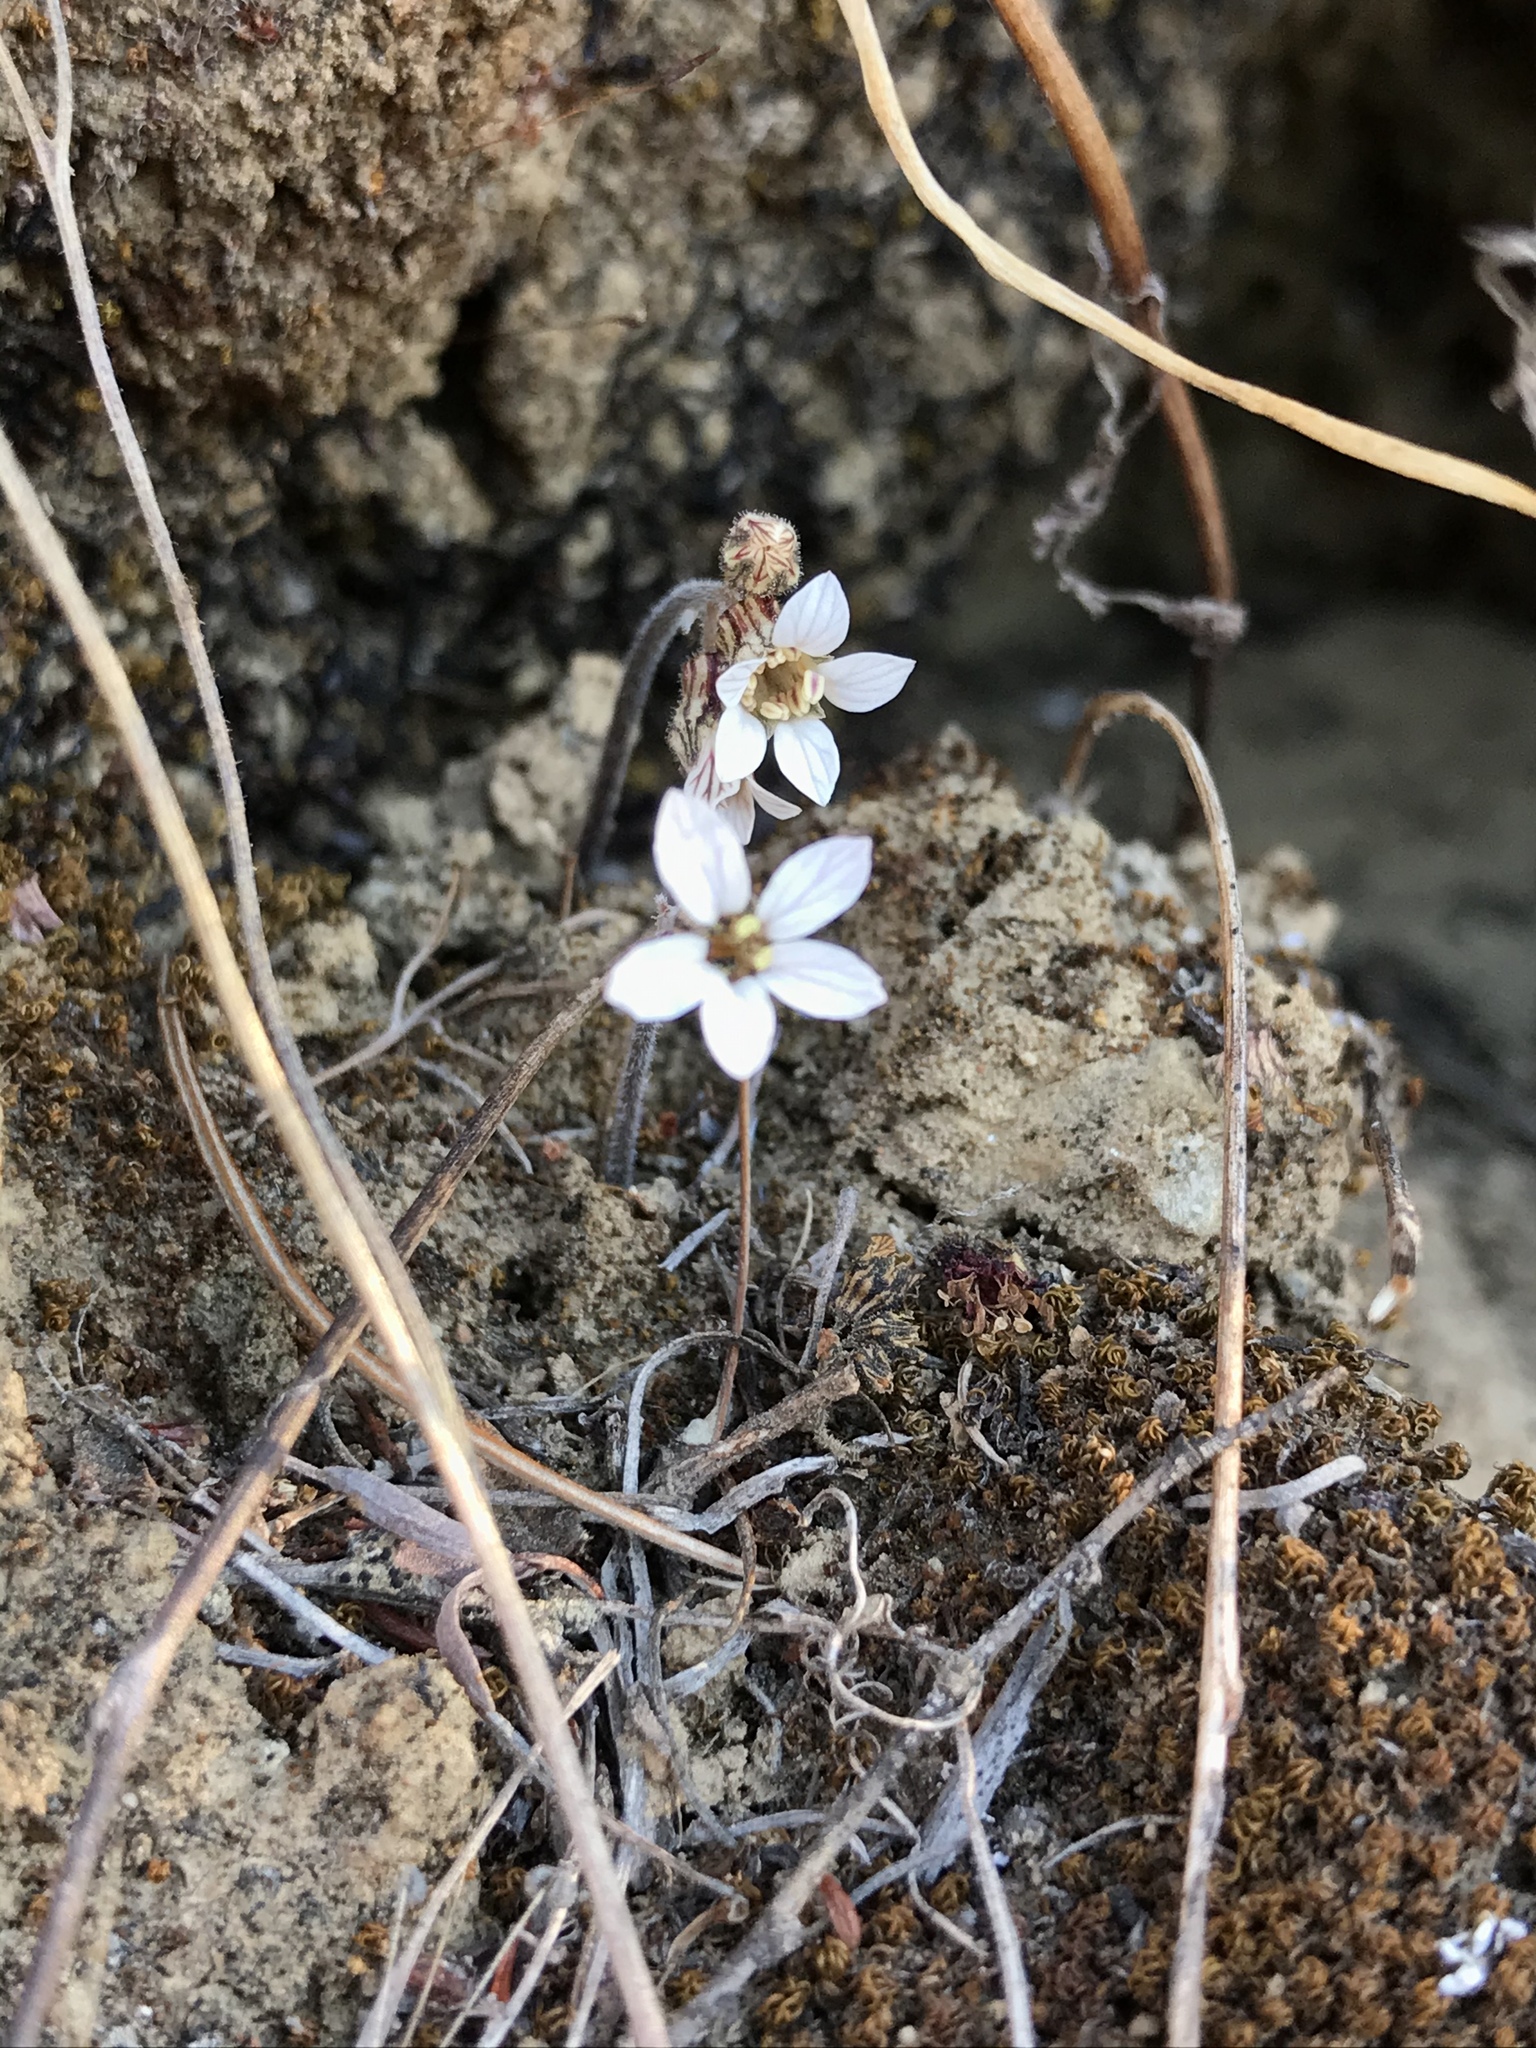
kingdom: Plantae
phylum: Tracheophyta
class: Magnoliopsida
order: Saxifragales
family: Saxifragaceae
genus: Jepsonia
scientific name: Jepsonia parryi
